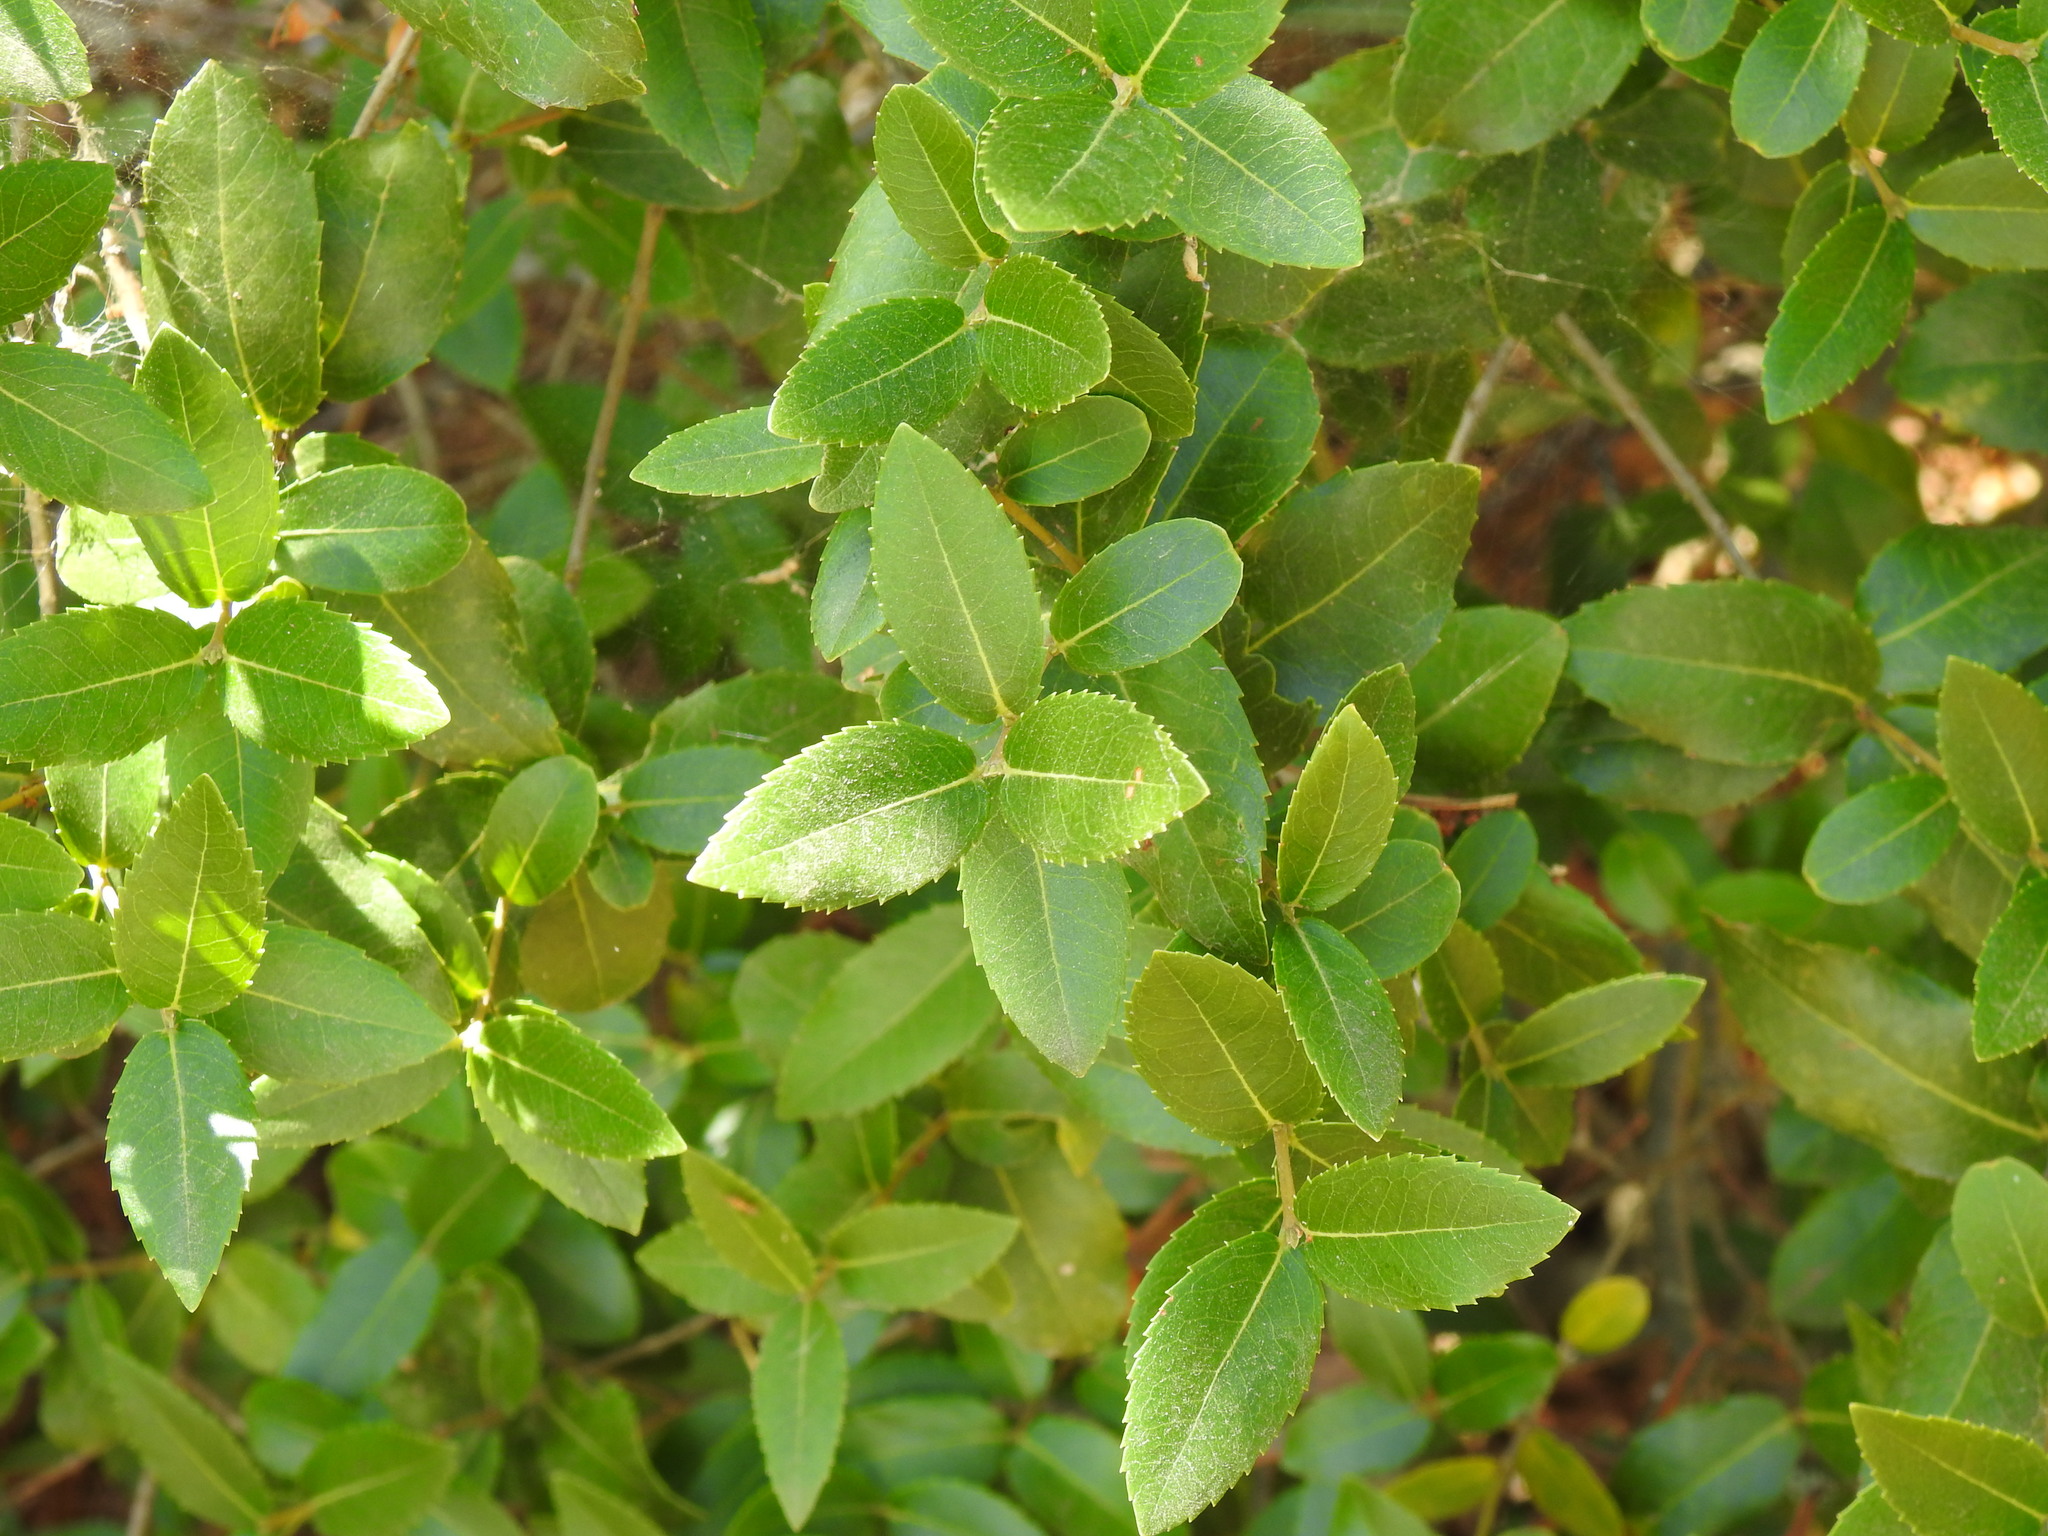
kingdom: Plantae
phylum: Tracheophyta
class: Magnoliopsida
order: Lamiales
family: Oleaceae
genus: Phillyrea
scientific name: Phillyrea latifolia
